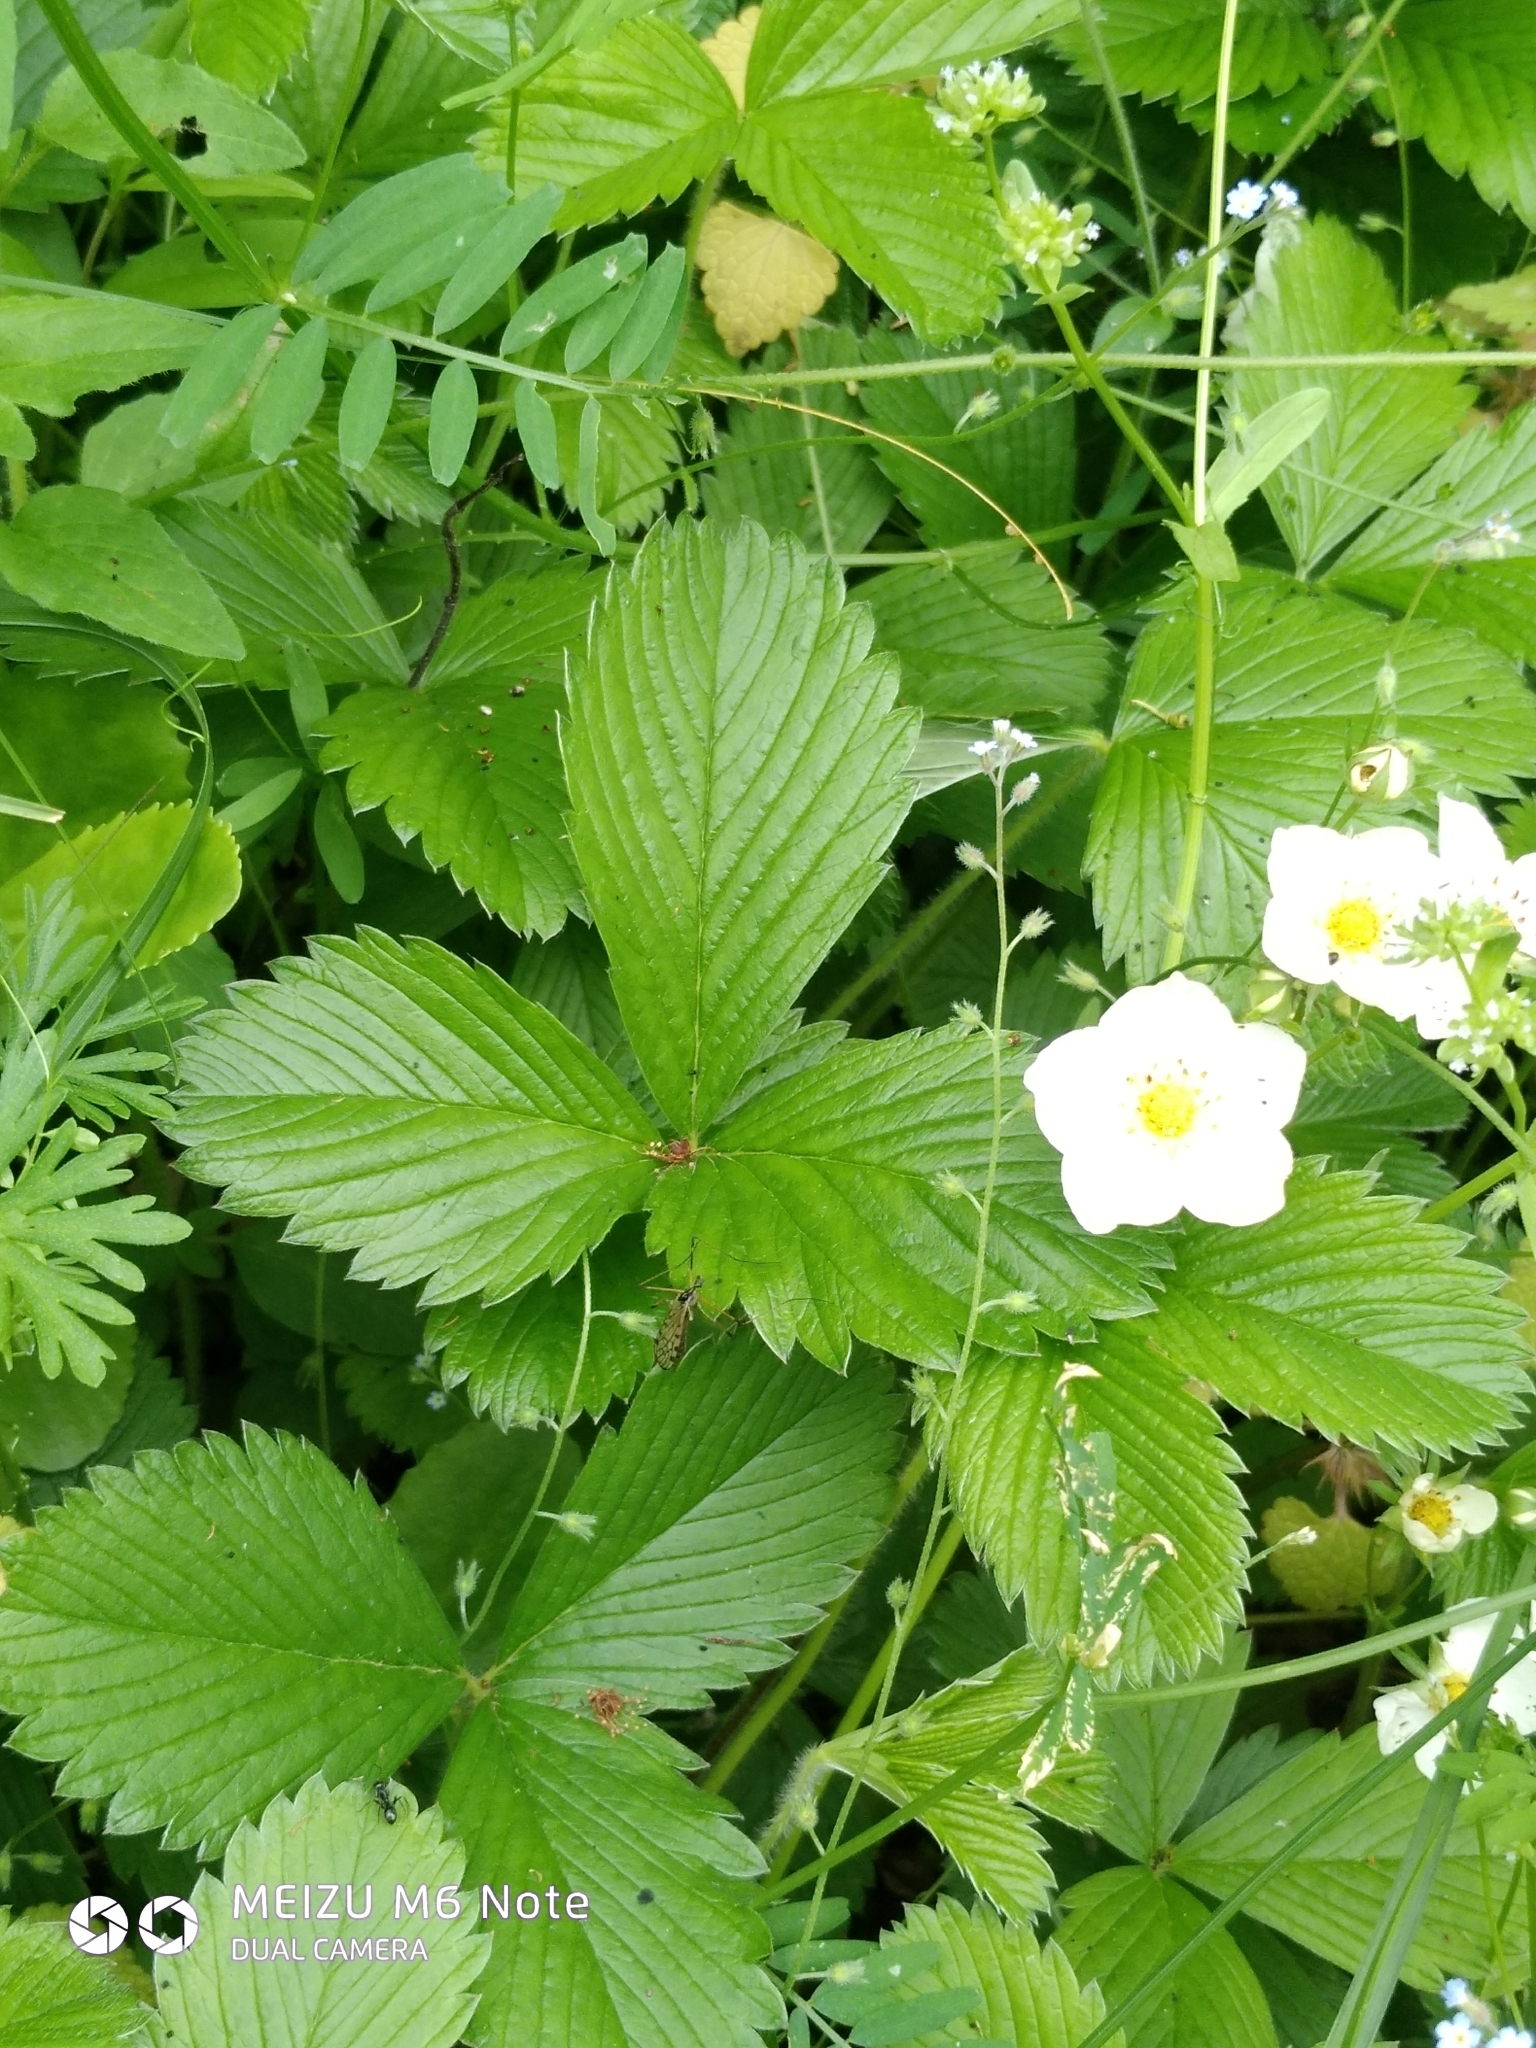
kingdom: Plantae
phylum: Tracheophyta
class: Magnoliopsida
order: Rosales
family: Rosaceae
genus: Fragaria
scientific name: Fragaria viridis
